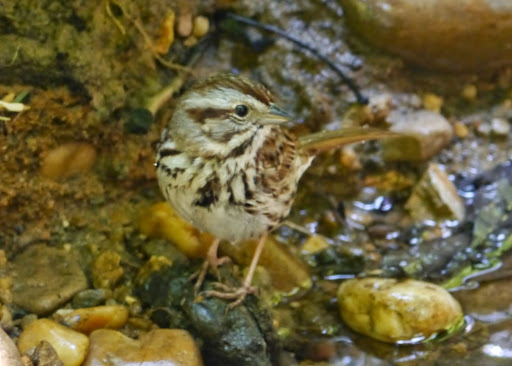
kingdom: Animalia
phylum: Chordata
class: Aves
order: Passeriformes
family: Passerellidae
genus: Melospiza
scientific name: Melospiza melodia
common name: Song sparrow
